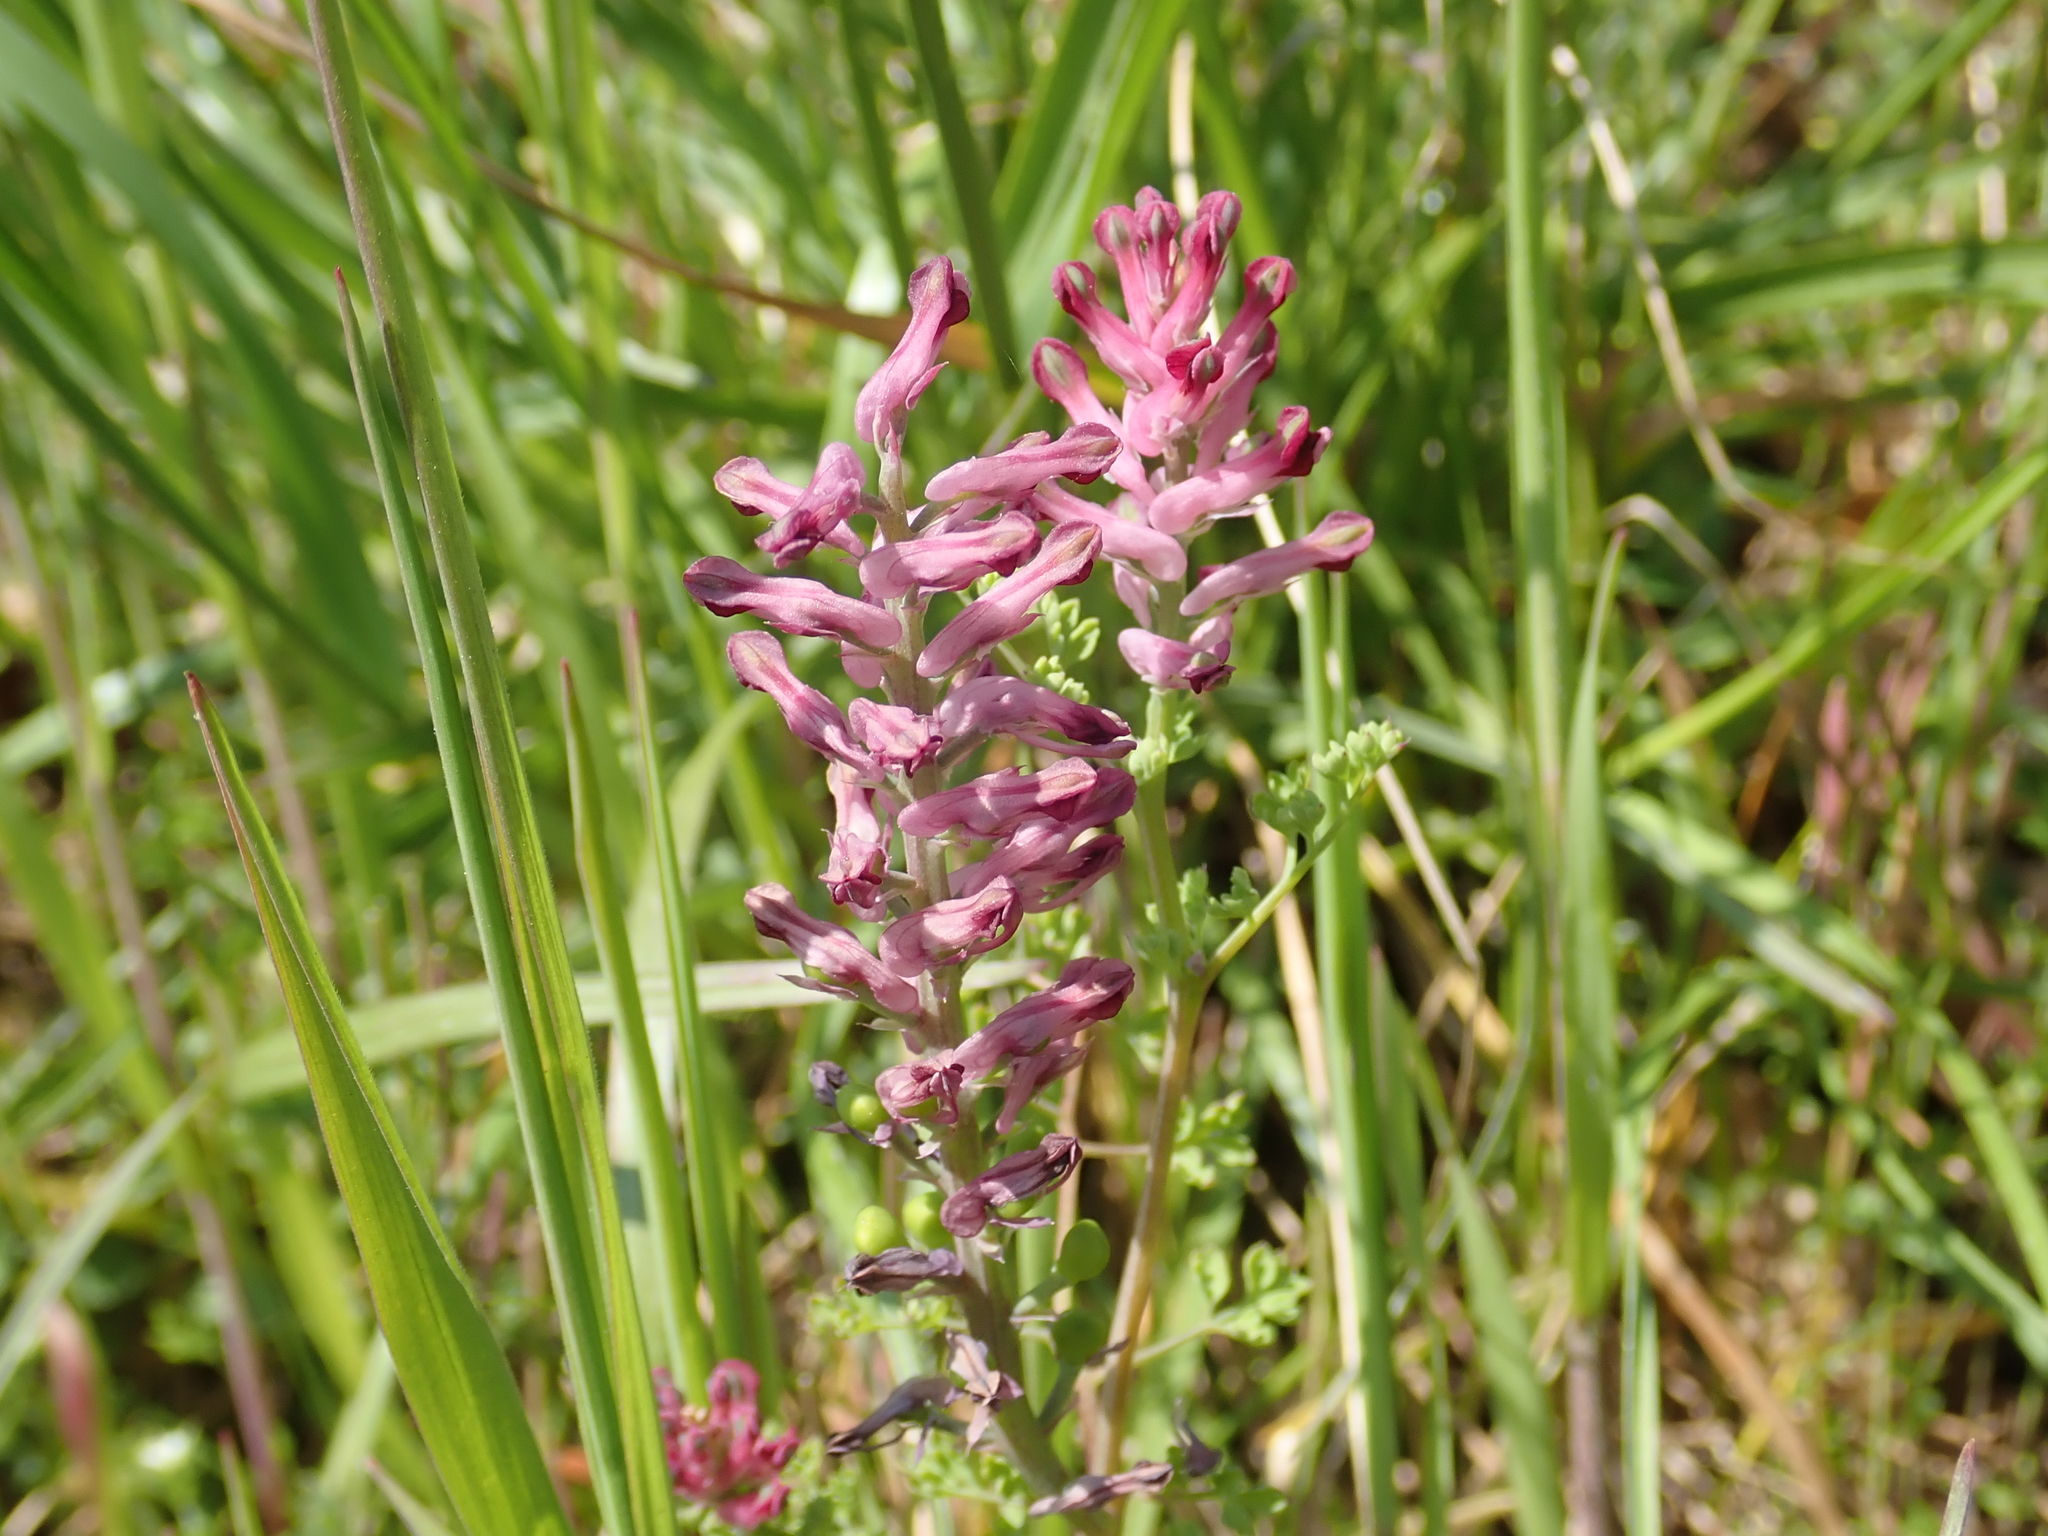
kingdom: Plantae
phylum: Tracheophyta
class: Magnoliopsida
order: Ranunculales
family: Papaveraceae
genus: Fumaria
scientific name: Fumaria officinalis
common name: Common fumitory
